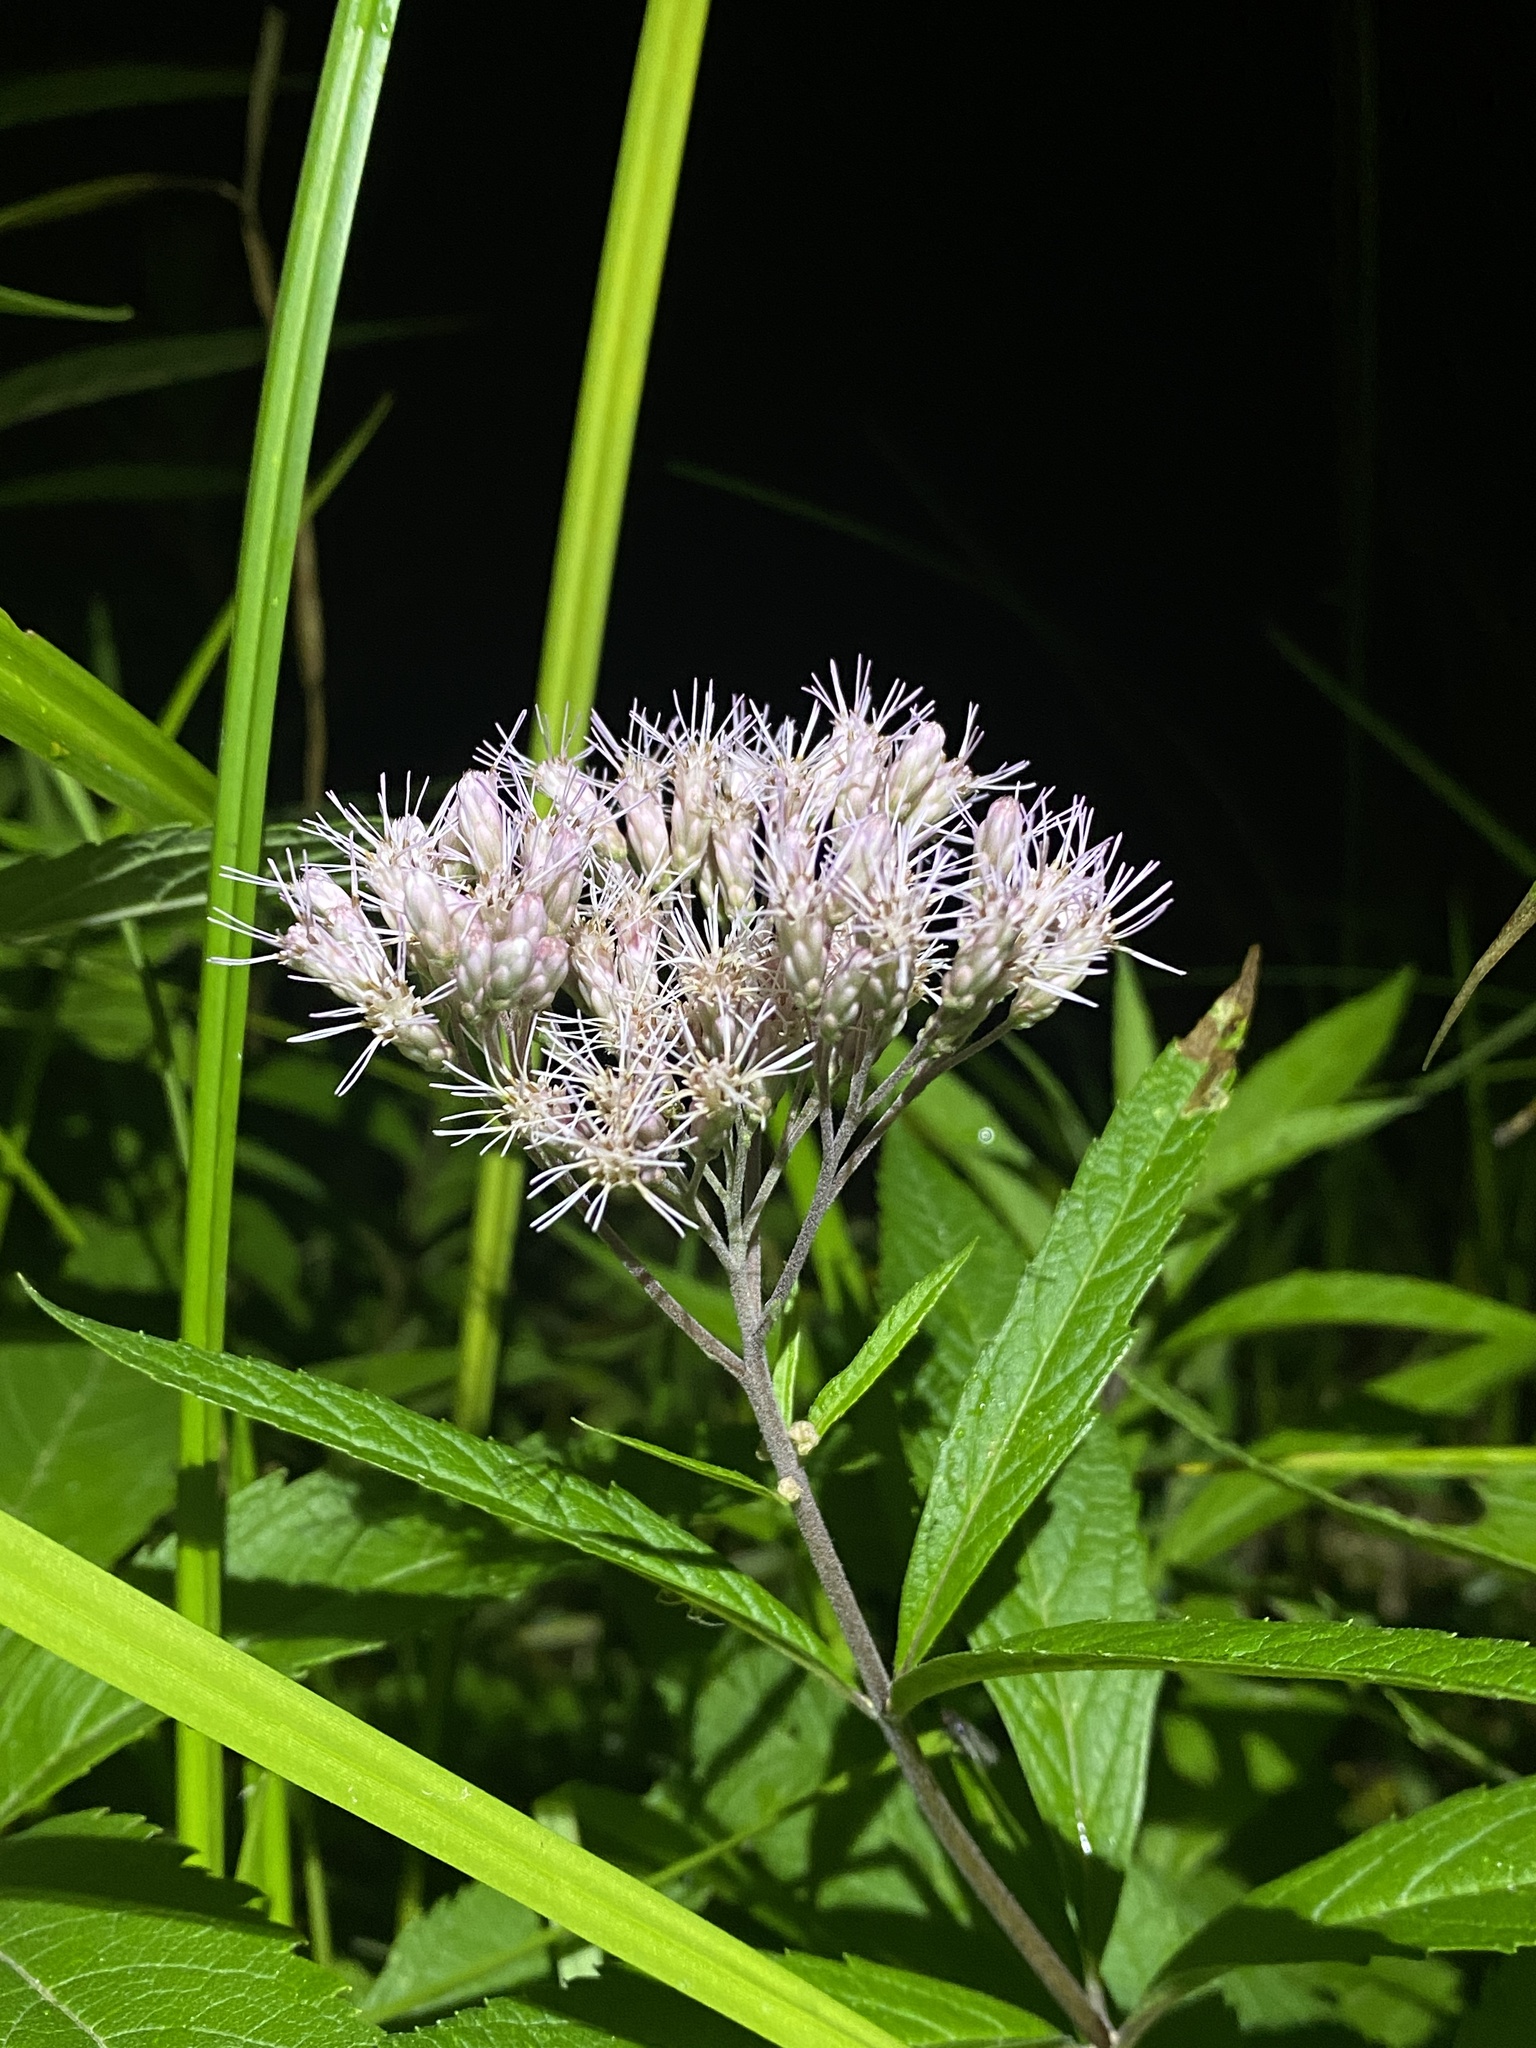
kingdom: Plantae
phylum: Tracheophyta
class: Magnoliopsida
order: Asterales
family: Asteraceae
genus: Eutrochium
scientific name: Eutrochium maculatum
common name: Spotted joe pye weed
